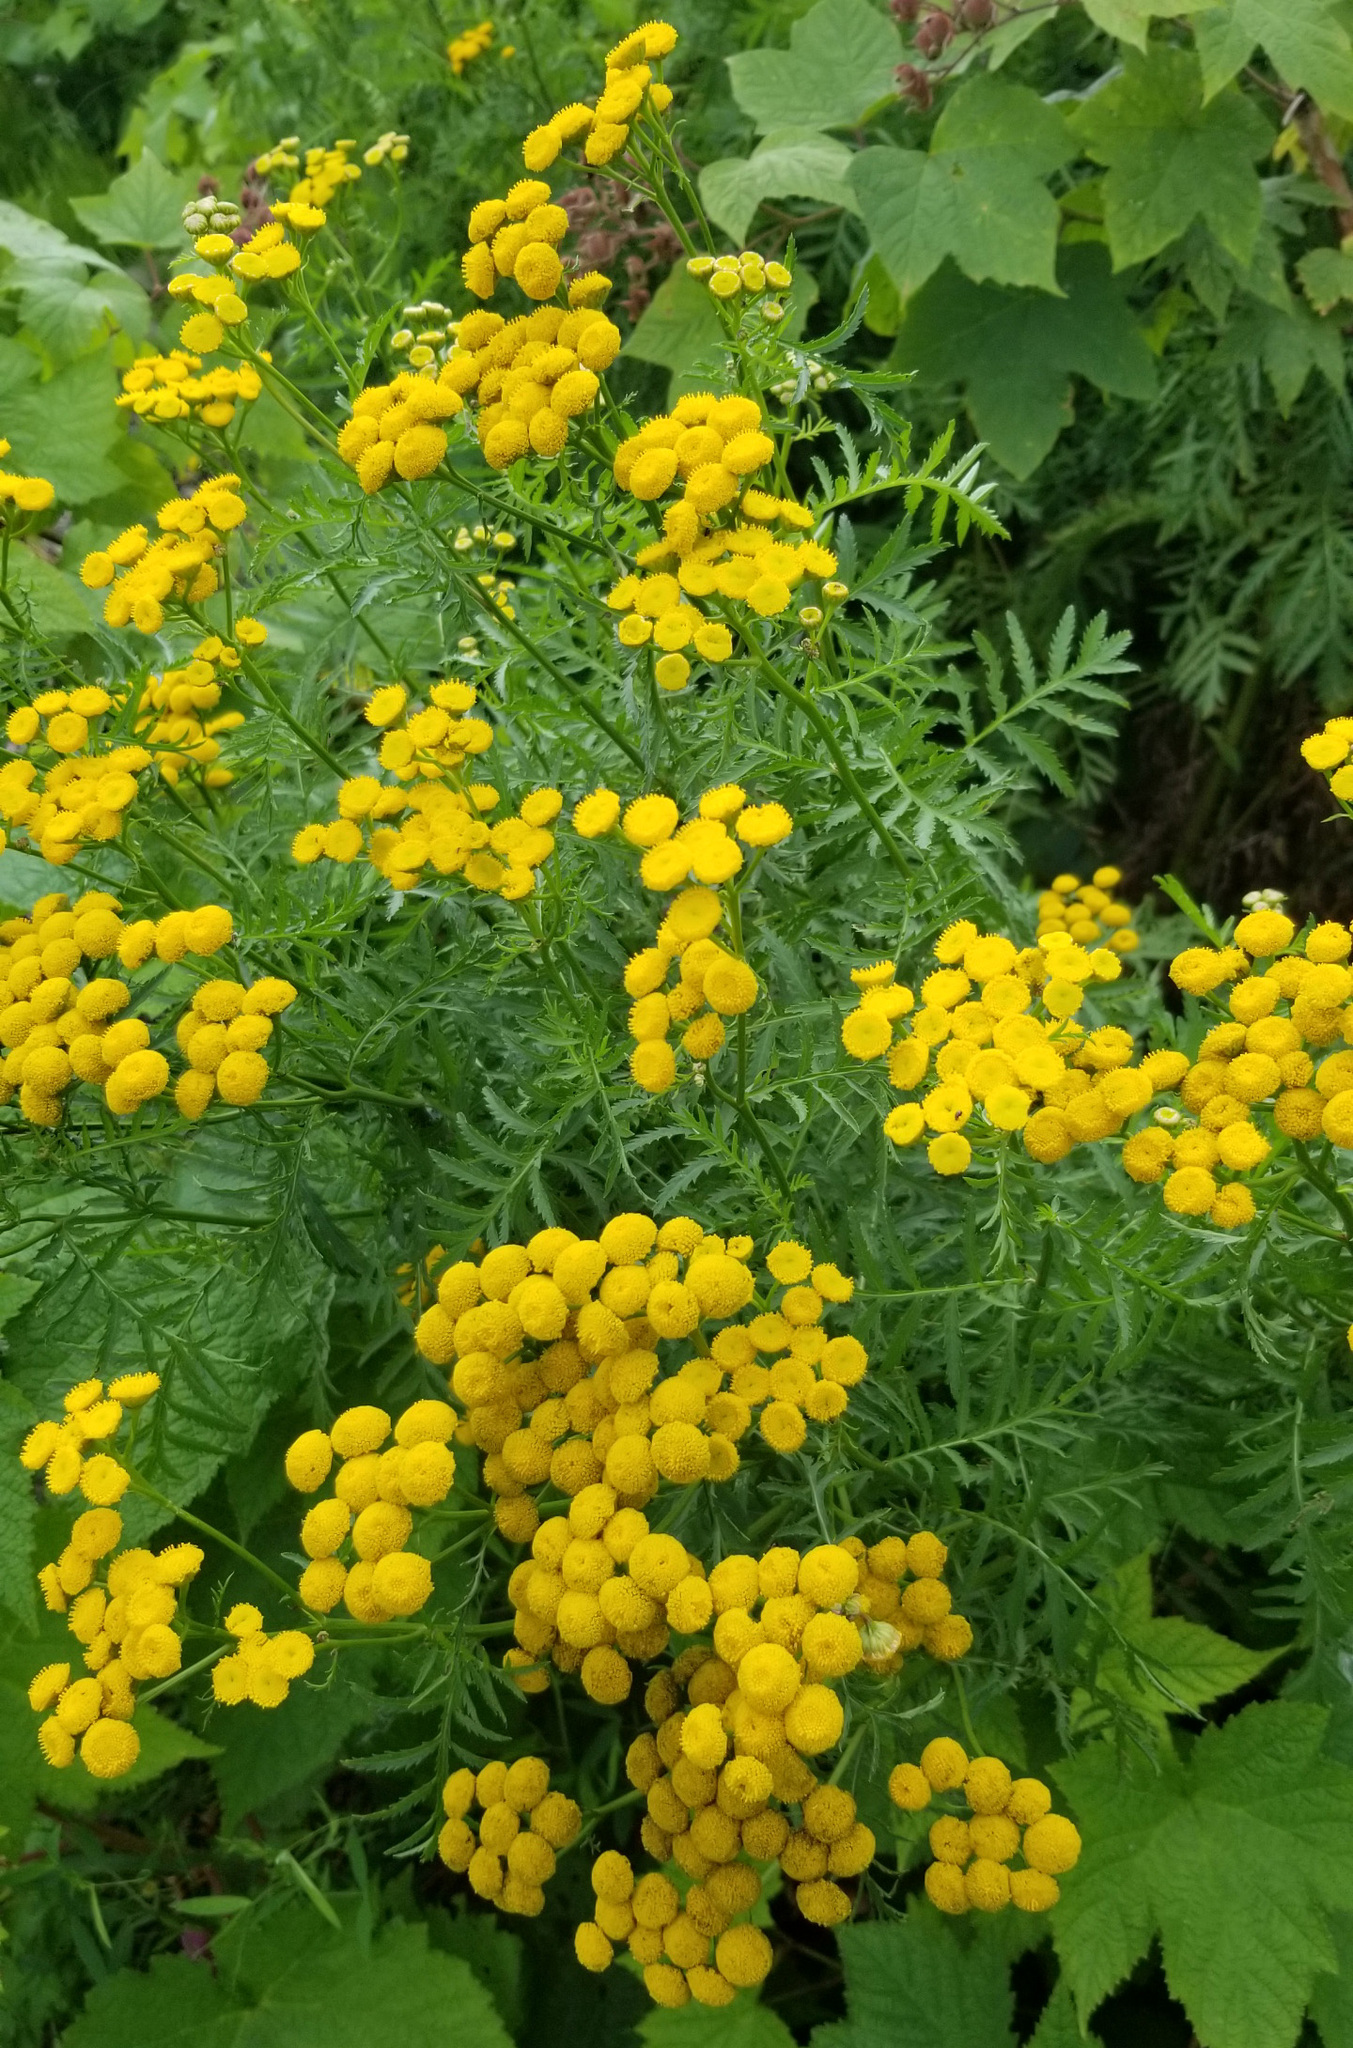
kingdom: Plantae
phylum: Tracheophyta
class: Magnoliopsida
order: Asterales
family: Asteraceae
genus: Tanacetum
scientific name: Tanacetum vulgare
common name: Common tansy
